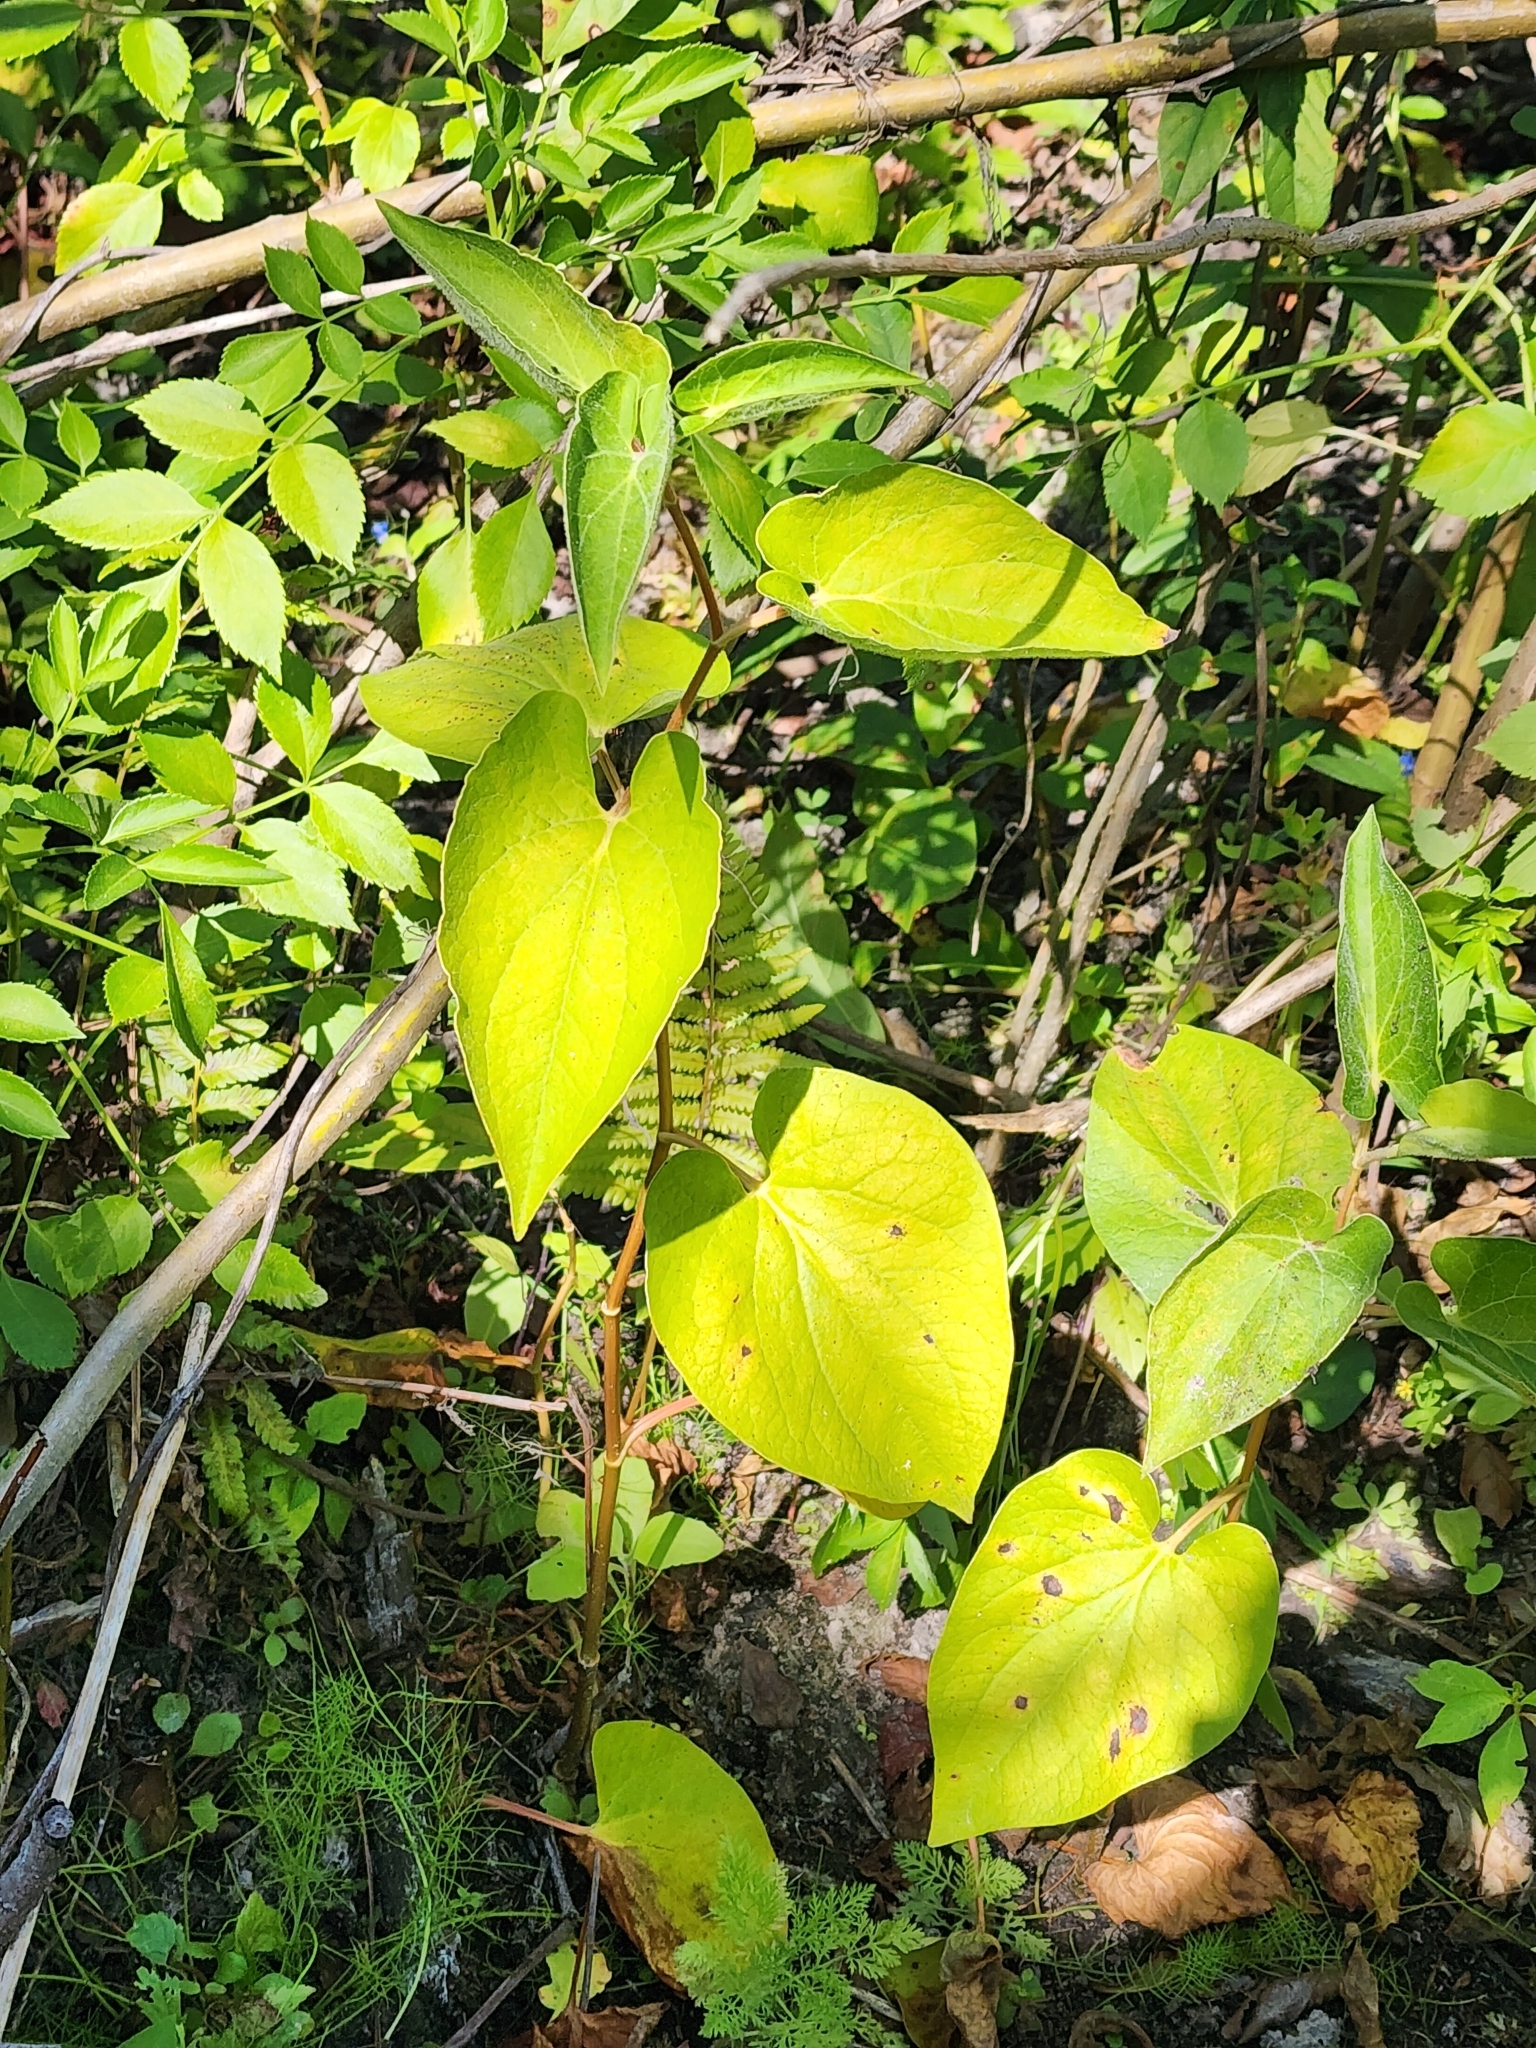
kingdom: Plantae
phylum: Tracheophyta
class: Magnoliopsida
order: Piperales
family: Saururaceae
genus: Saururus
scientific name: Saururus cernuus
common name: Lizard's-tail
